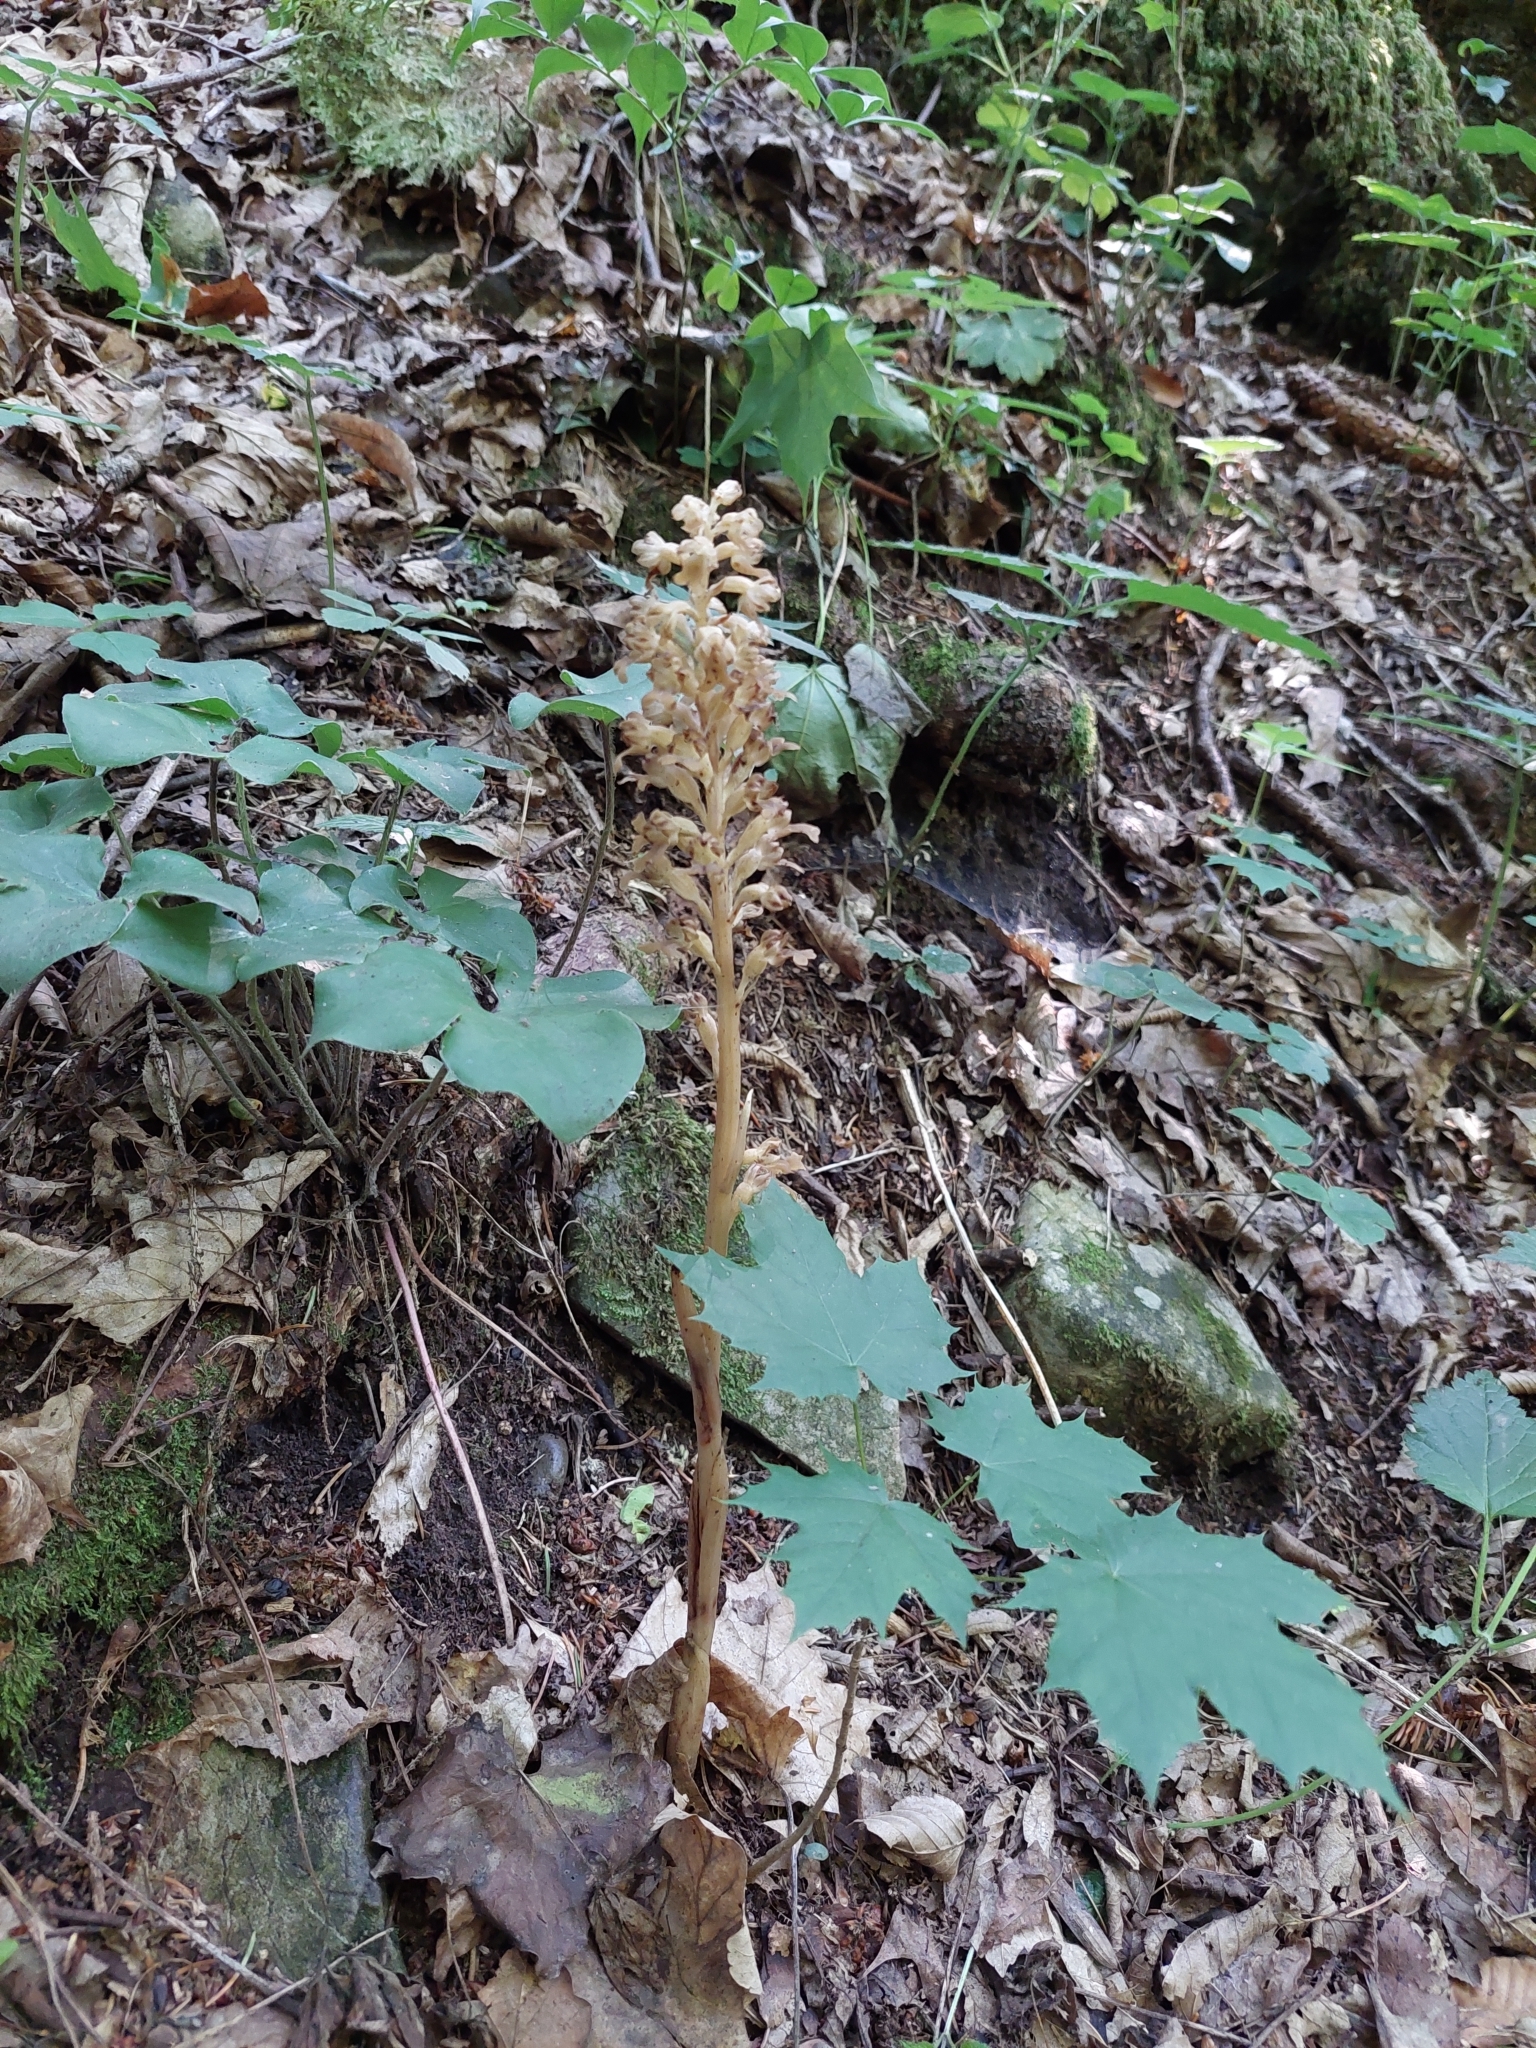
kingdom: Plantae
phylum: Tracheophyta
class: Liliopsida
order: Asparagales
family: Orchidaceae
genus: Neottia
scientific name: Neottia nidus-avis
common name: Bird's-nest orchid
